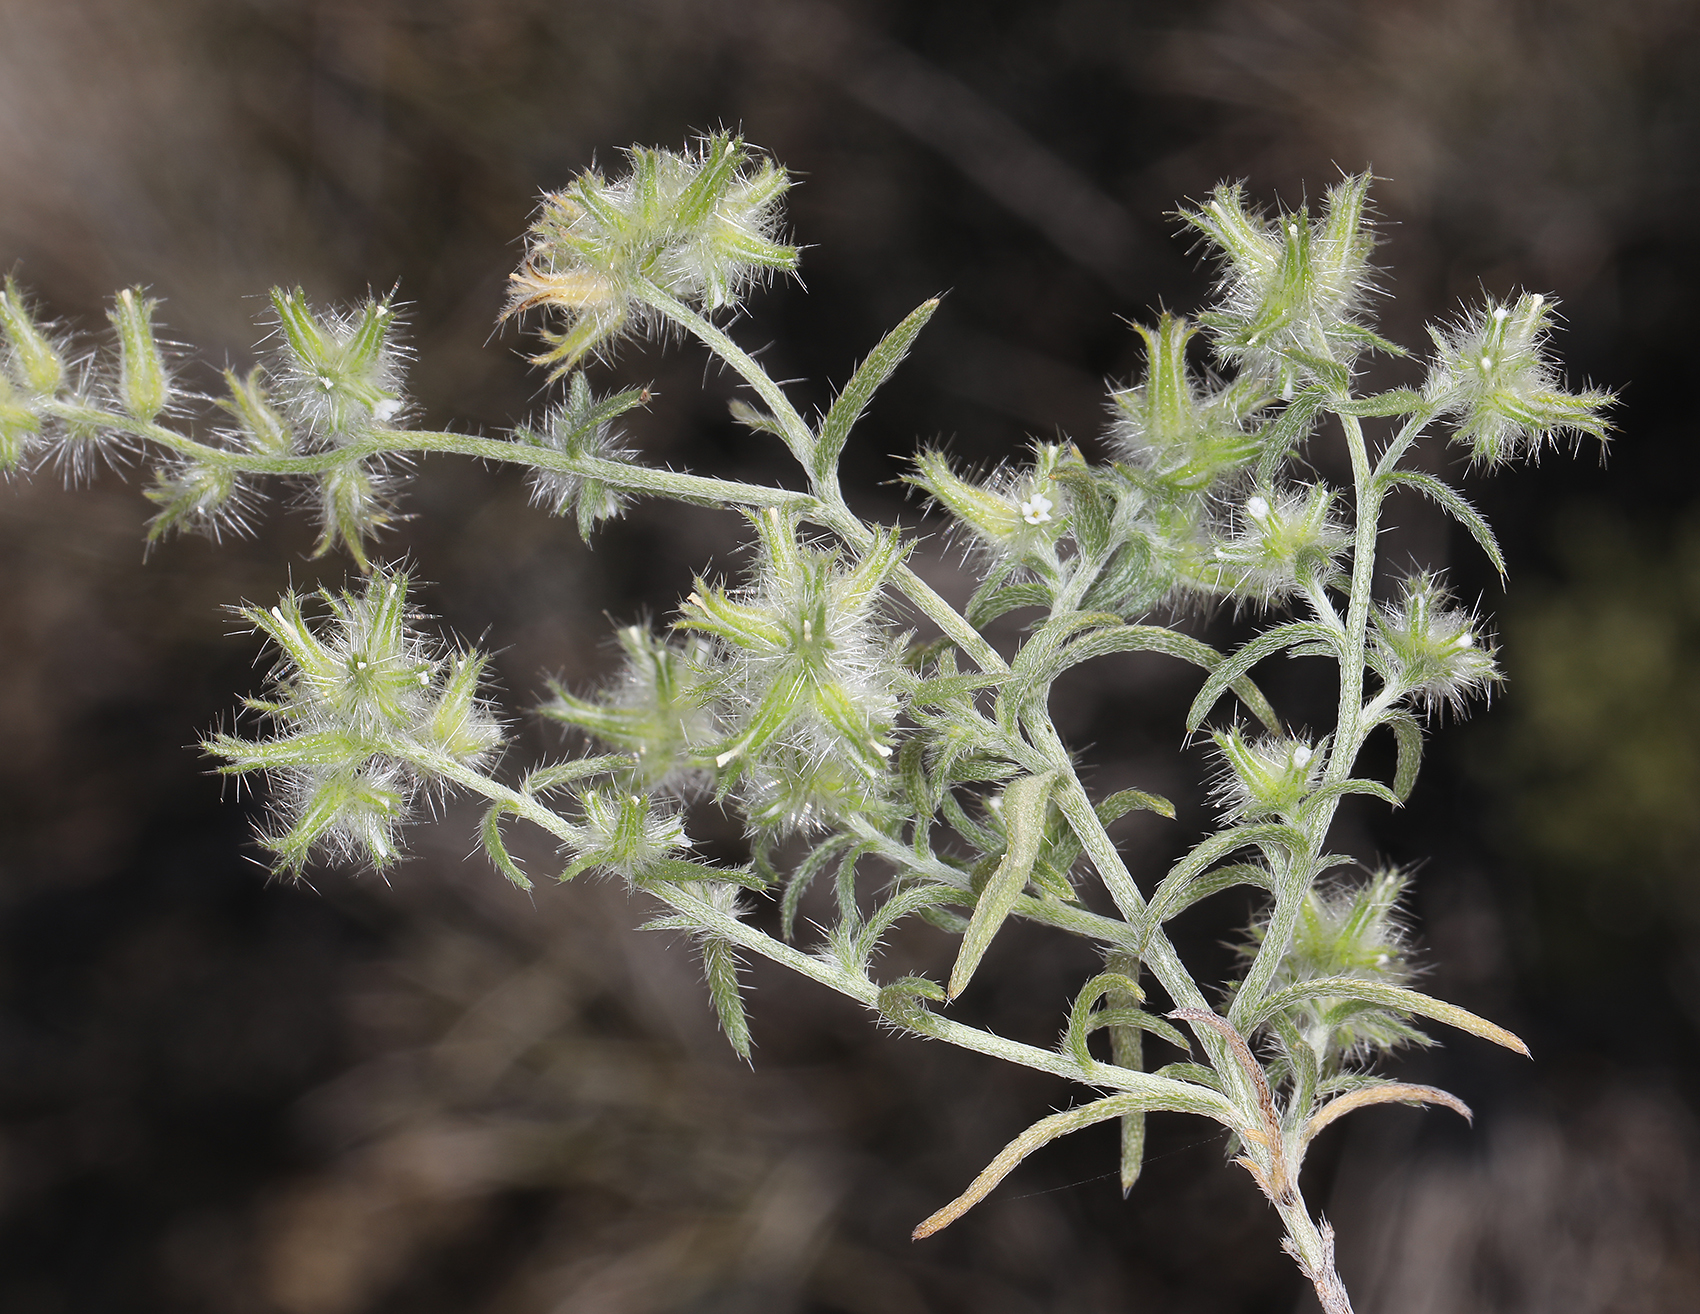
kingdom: Plantae
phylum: Tracheophyta
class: Magnoliopsida
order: Boraginales
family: Boraginaceae
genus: Cryptantha
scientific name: Cryptantha nevadensis
